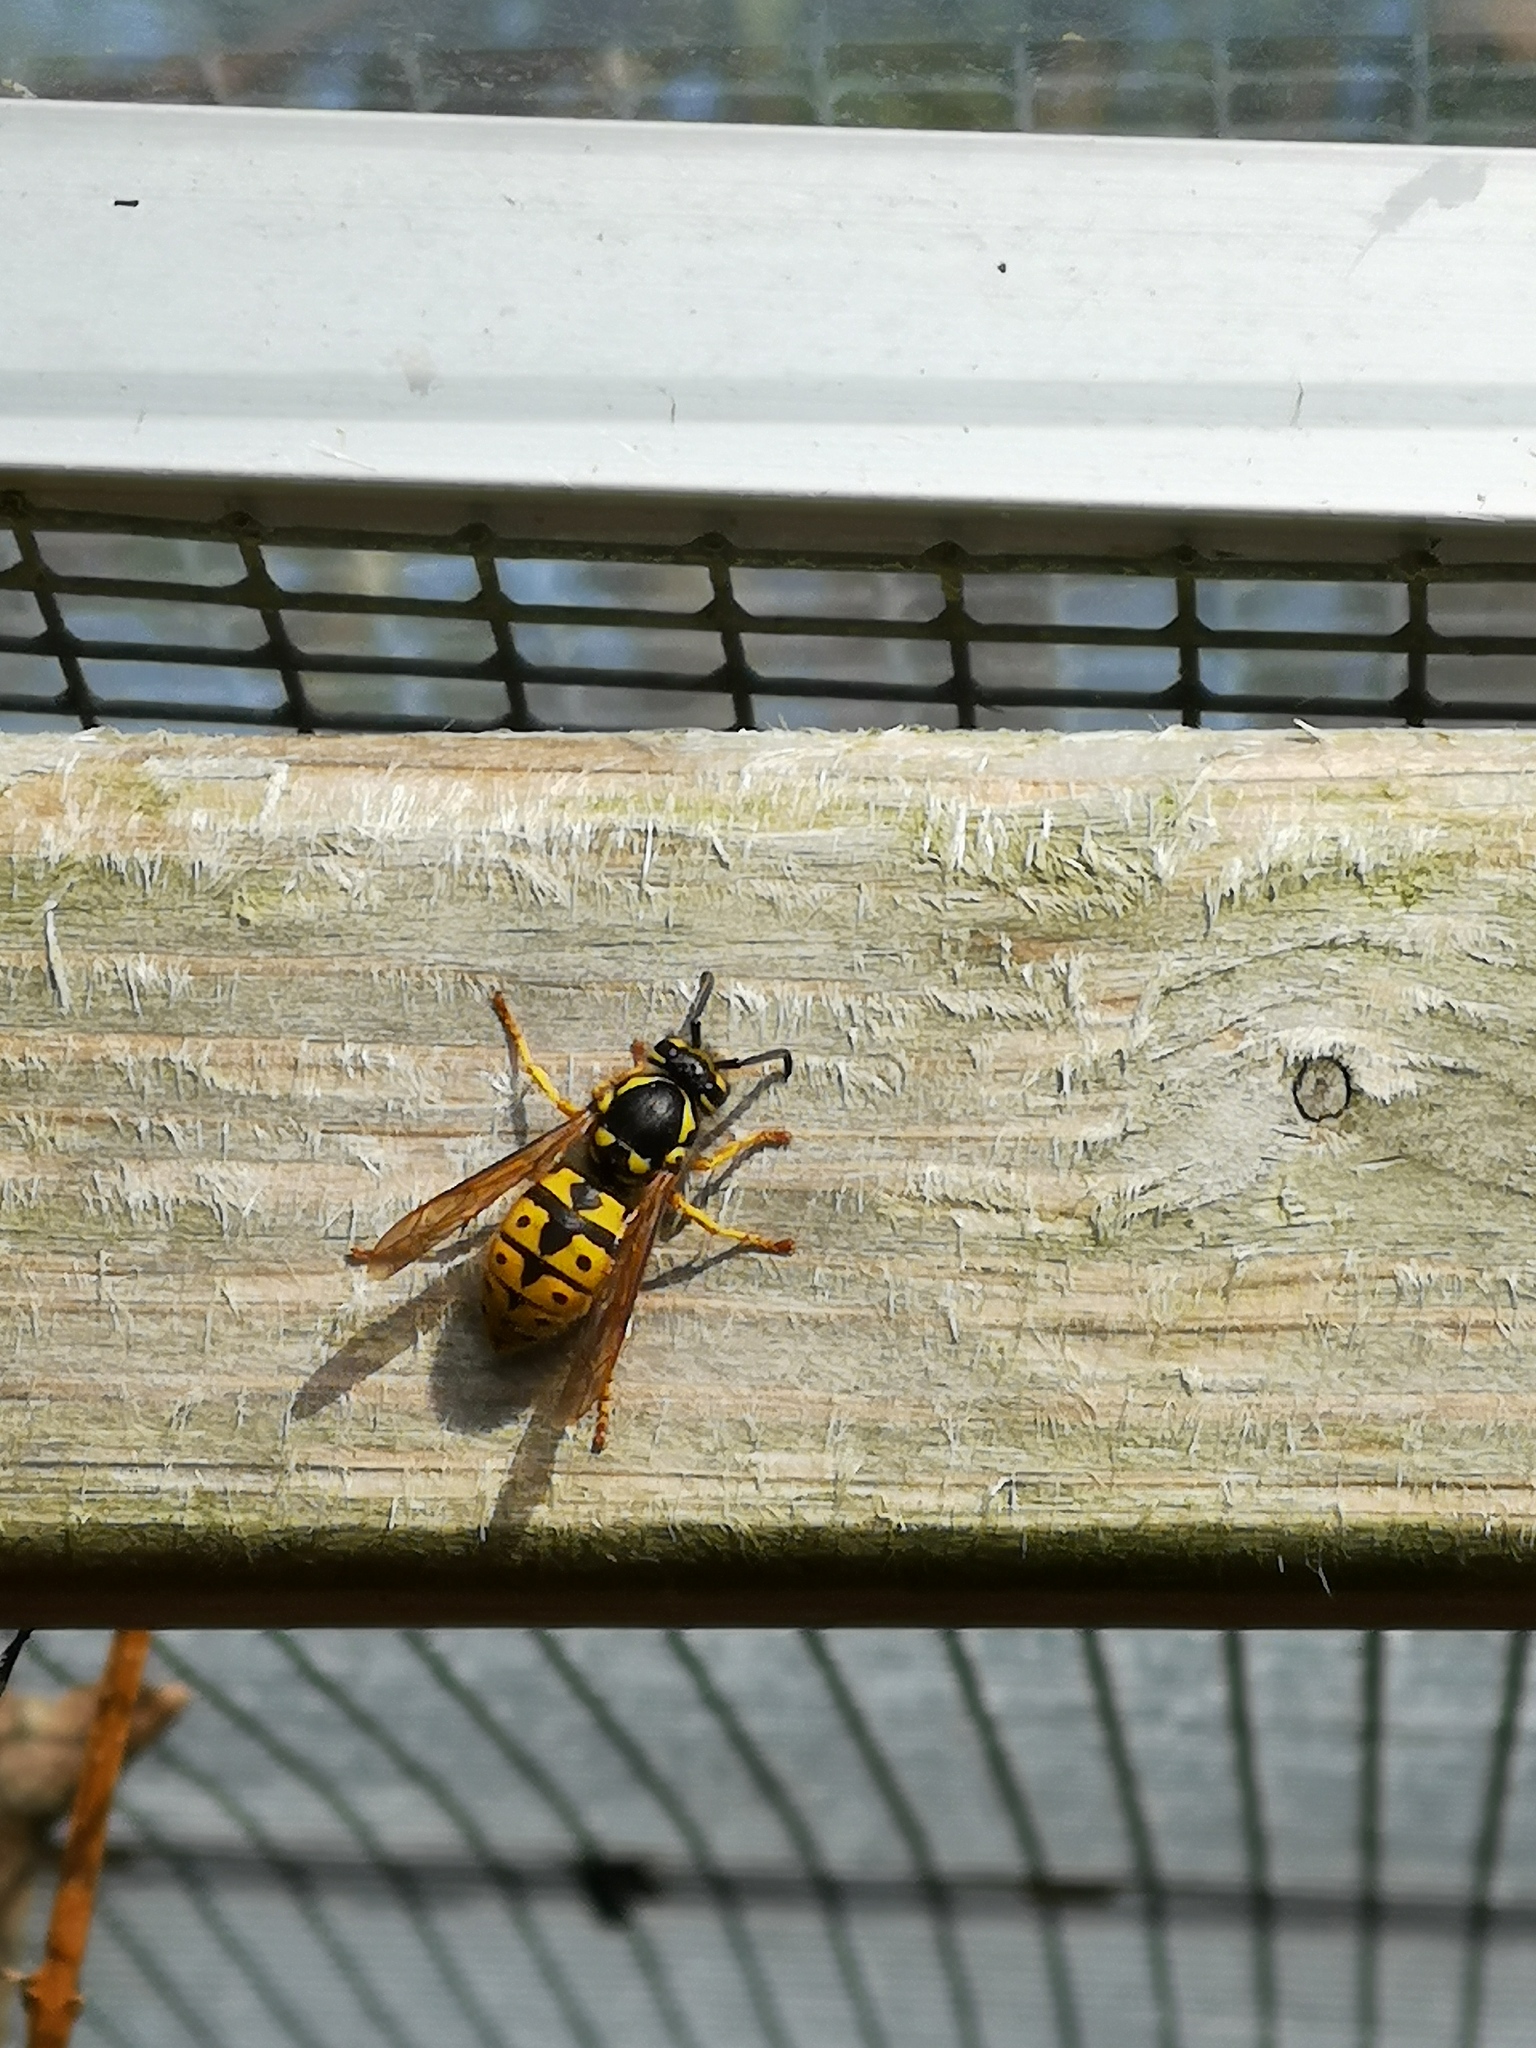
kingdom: Animalia
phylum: Arthropoda
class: Insecta
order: Hymenoptera
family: Vespidae
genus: Vespula
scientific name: Vespula germanica
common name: German wasp
